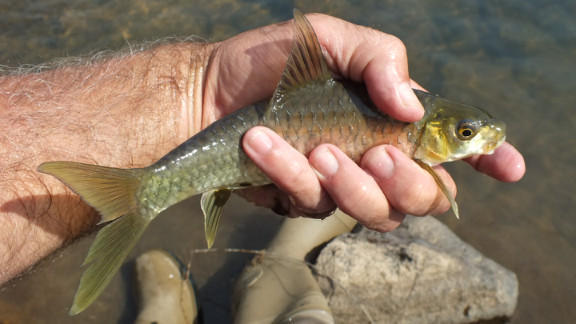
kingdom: Animalia
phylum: Chordata
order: Cypriniformes
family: Cyprinidae
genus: Labeobarbus
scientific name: Labeobarbus marequensis
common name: Largescale yellowfish
